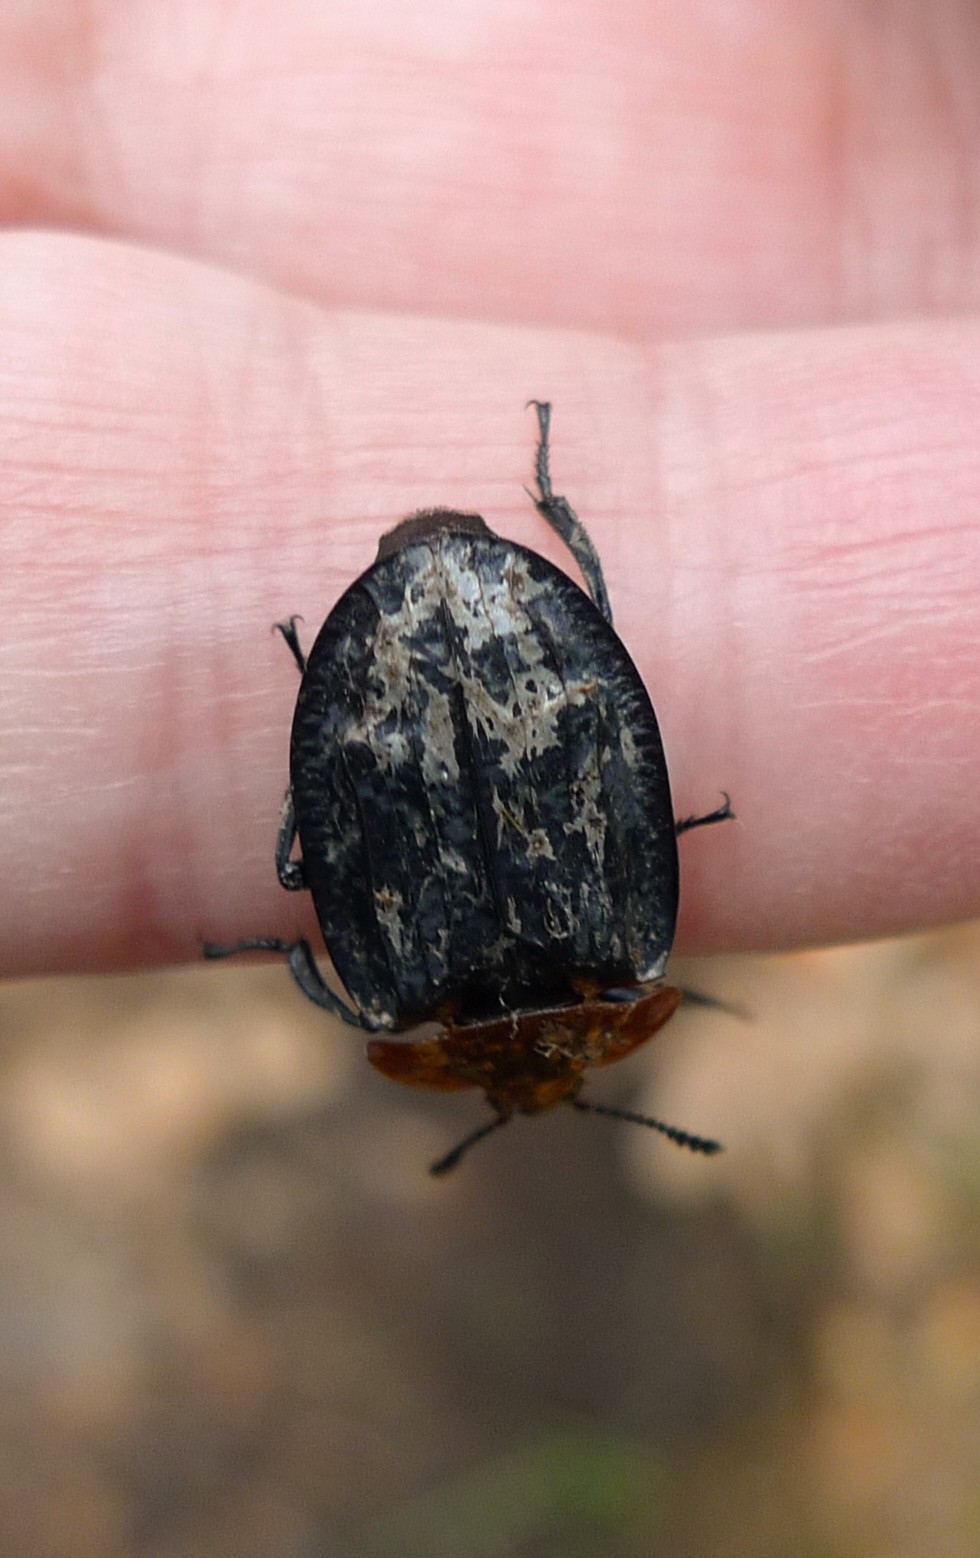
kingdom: Animalia
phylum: Arthropoda
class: Insecta
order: Coleoptera
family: Staphylinidae
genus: Oiceoptoma
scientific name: Oiceoptoma thoracicum
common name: Red-breasted carrion beetle
